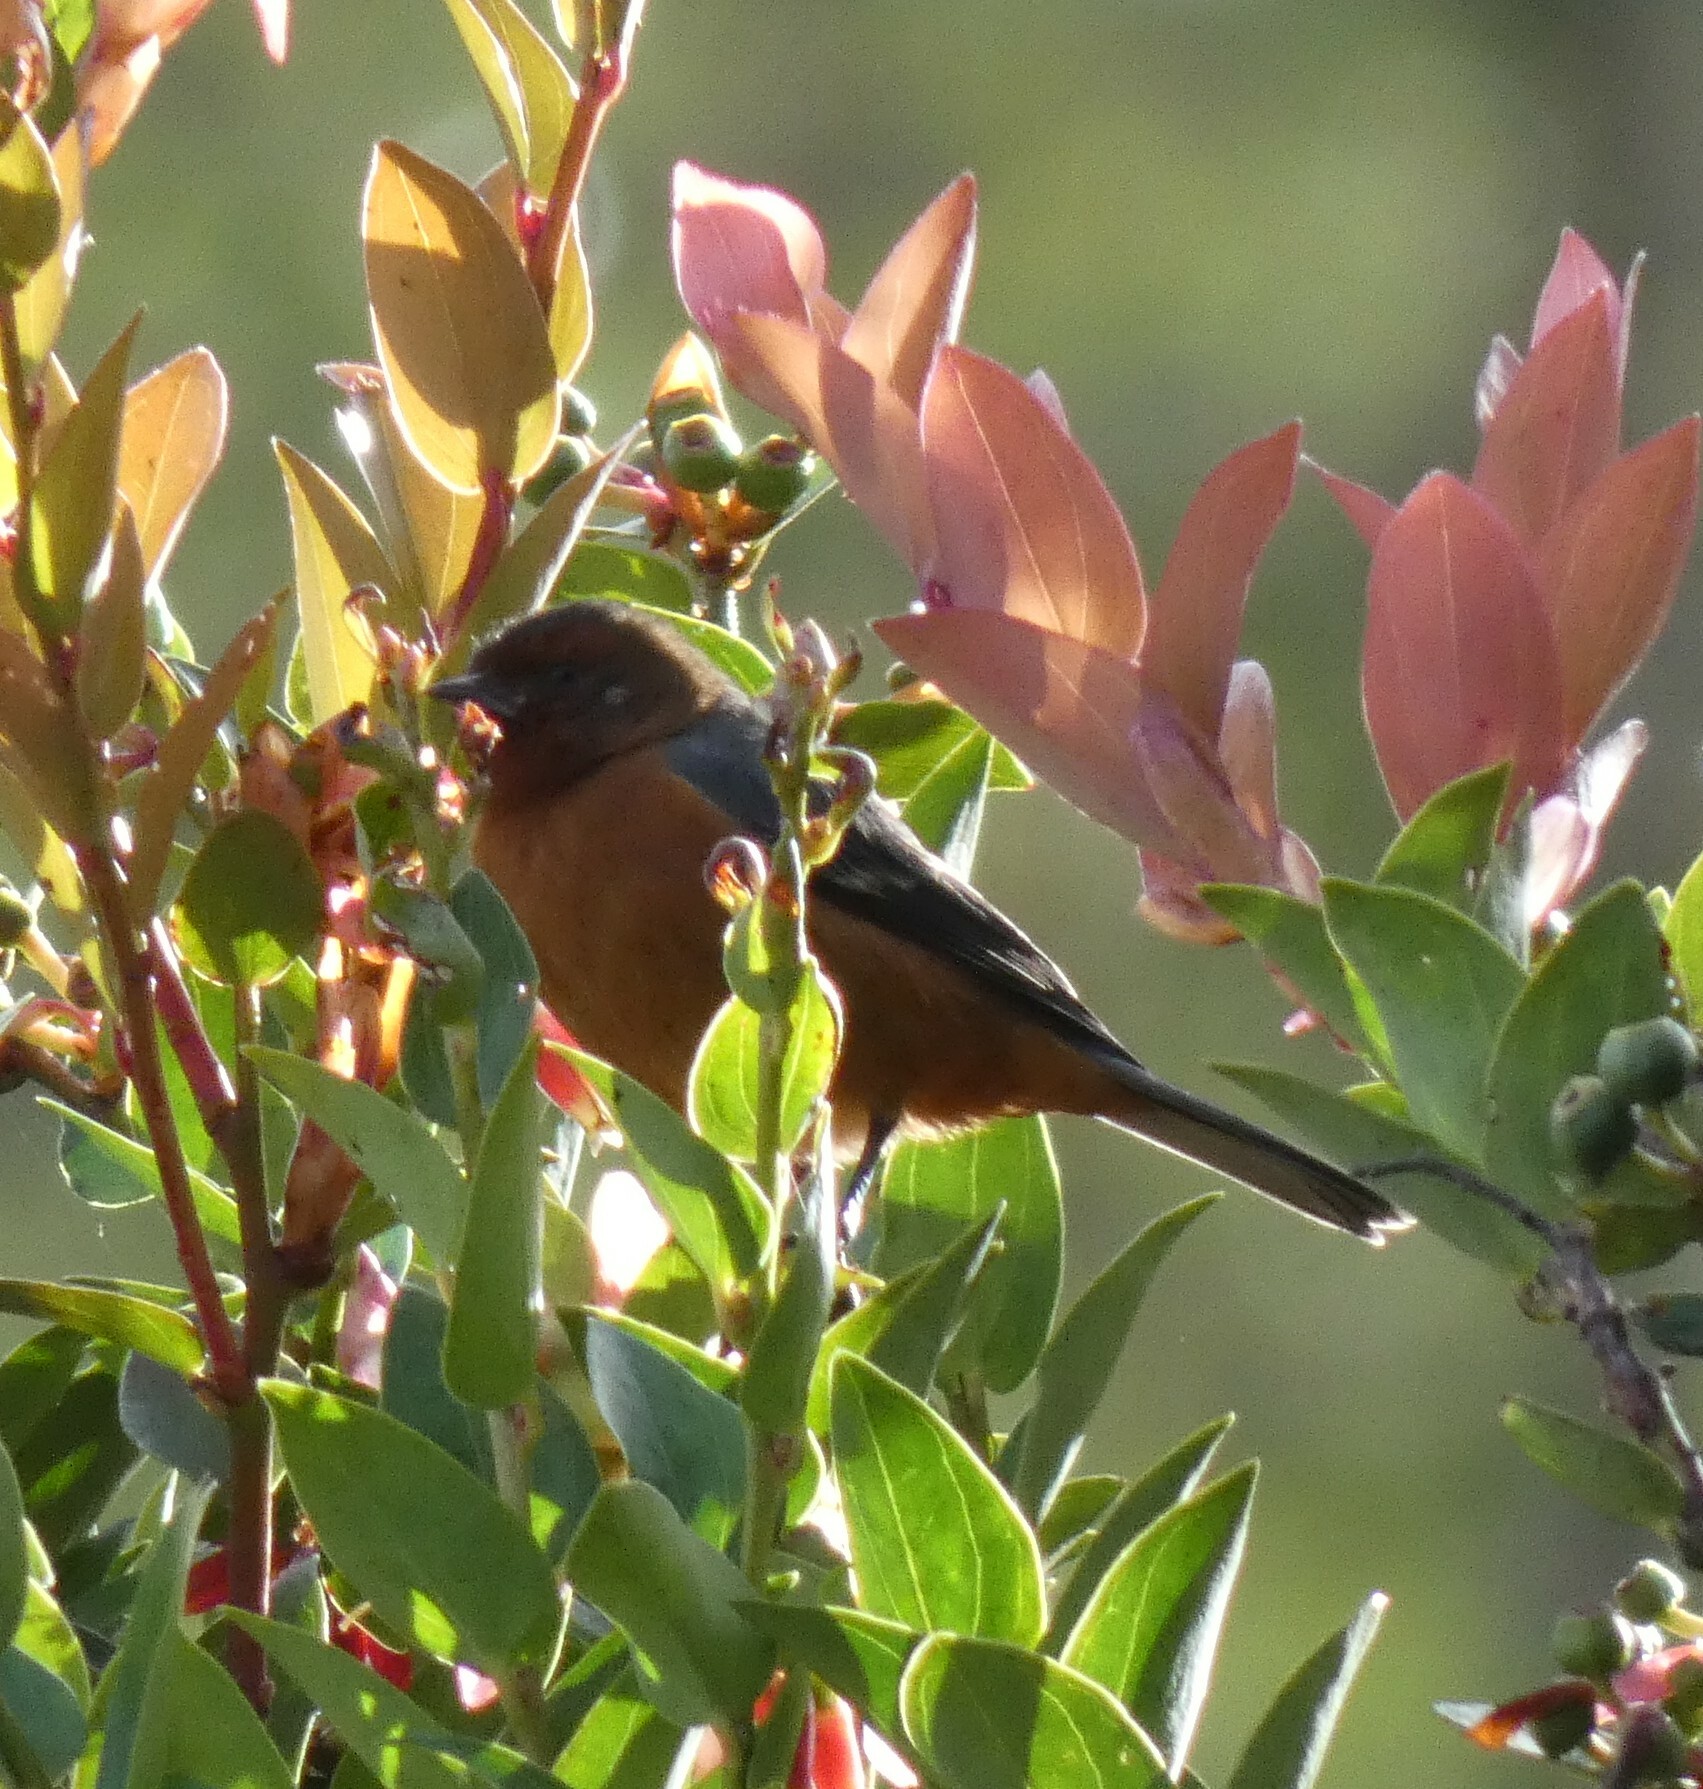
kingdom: Animalia
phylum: Chordata
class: Aves
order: Passeriformes
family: Thraupidae
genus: Conirostrum
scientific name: Conirostrum rufum
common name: Rufous-browed conebill
